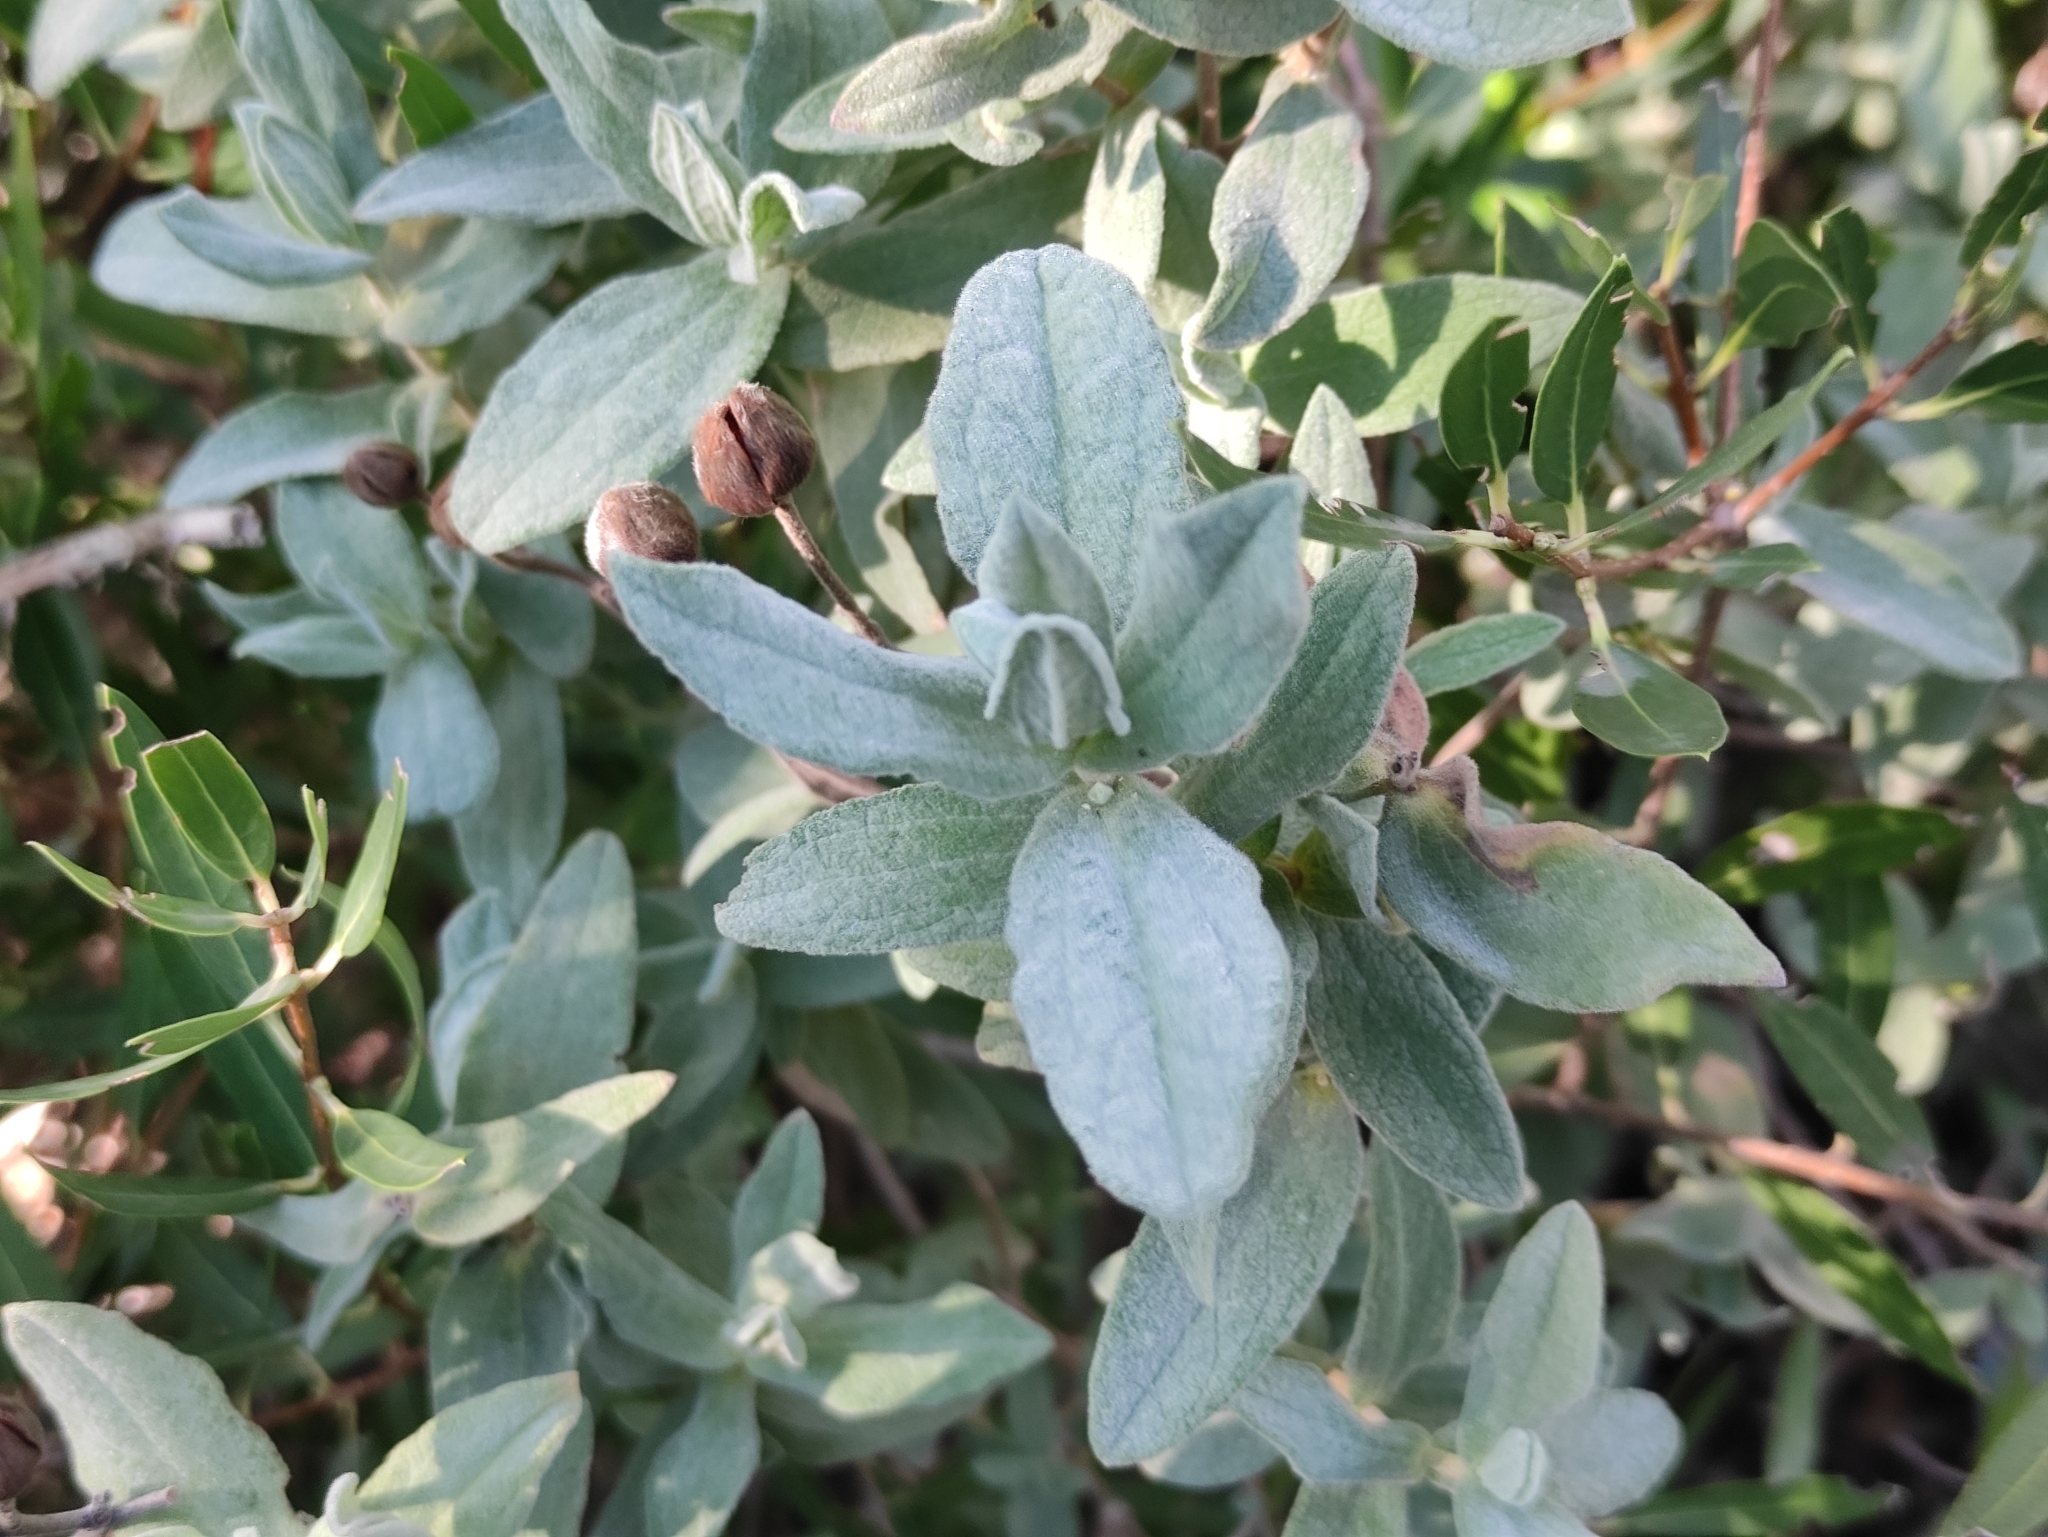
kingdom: Plantae
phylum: Tracheophyta
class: Magnoliopsida
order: Malvales
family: Cistaceae
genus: Cistus
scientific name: Cistus albidus
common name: White-leaf rock-rose
